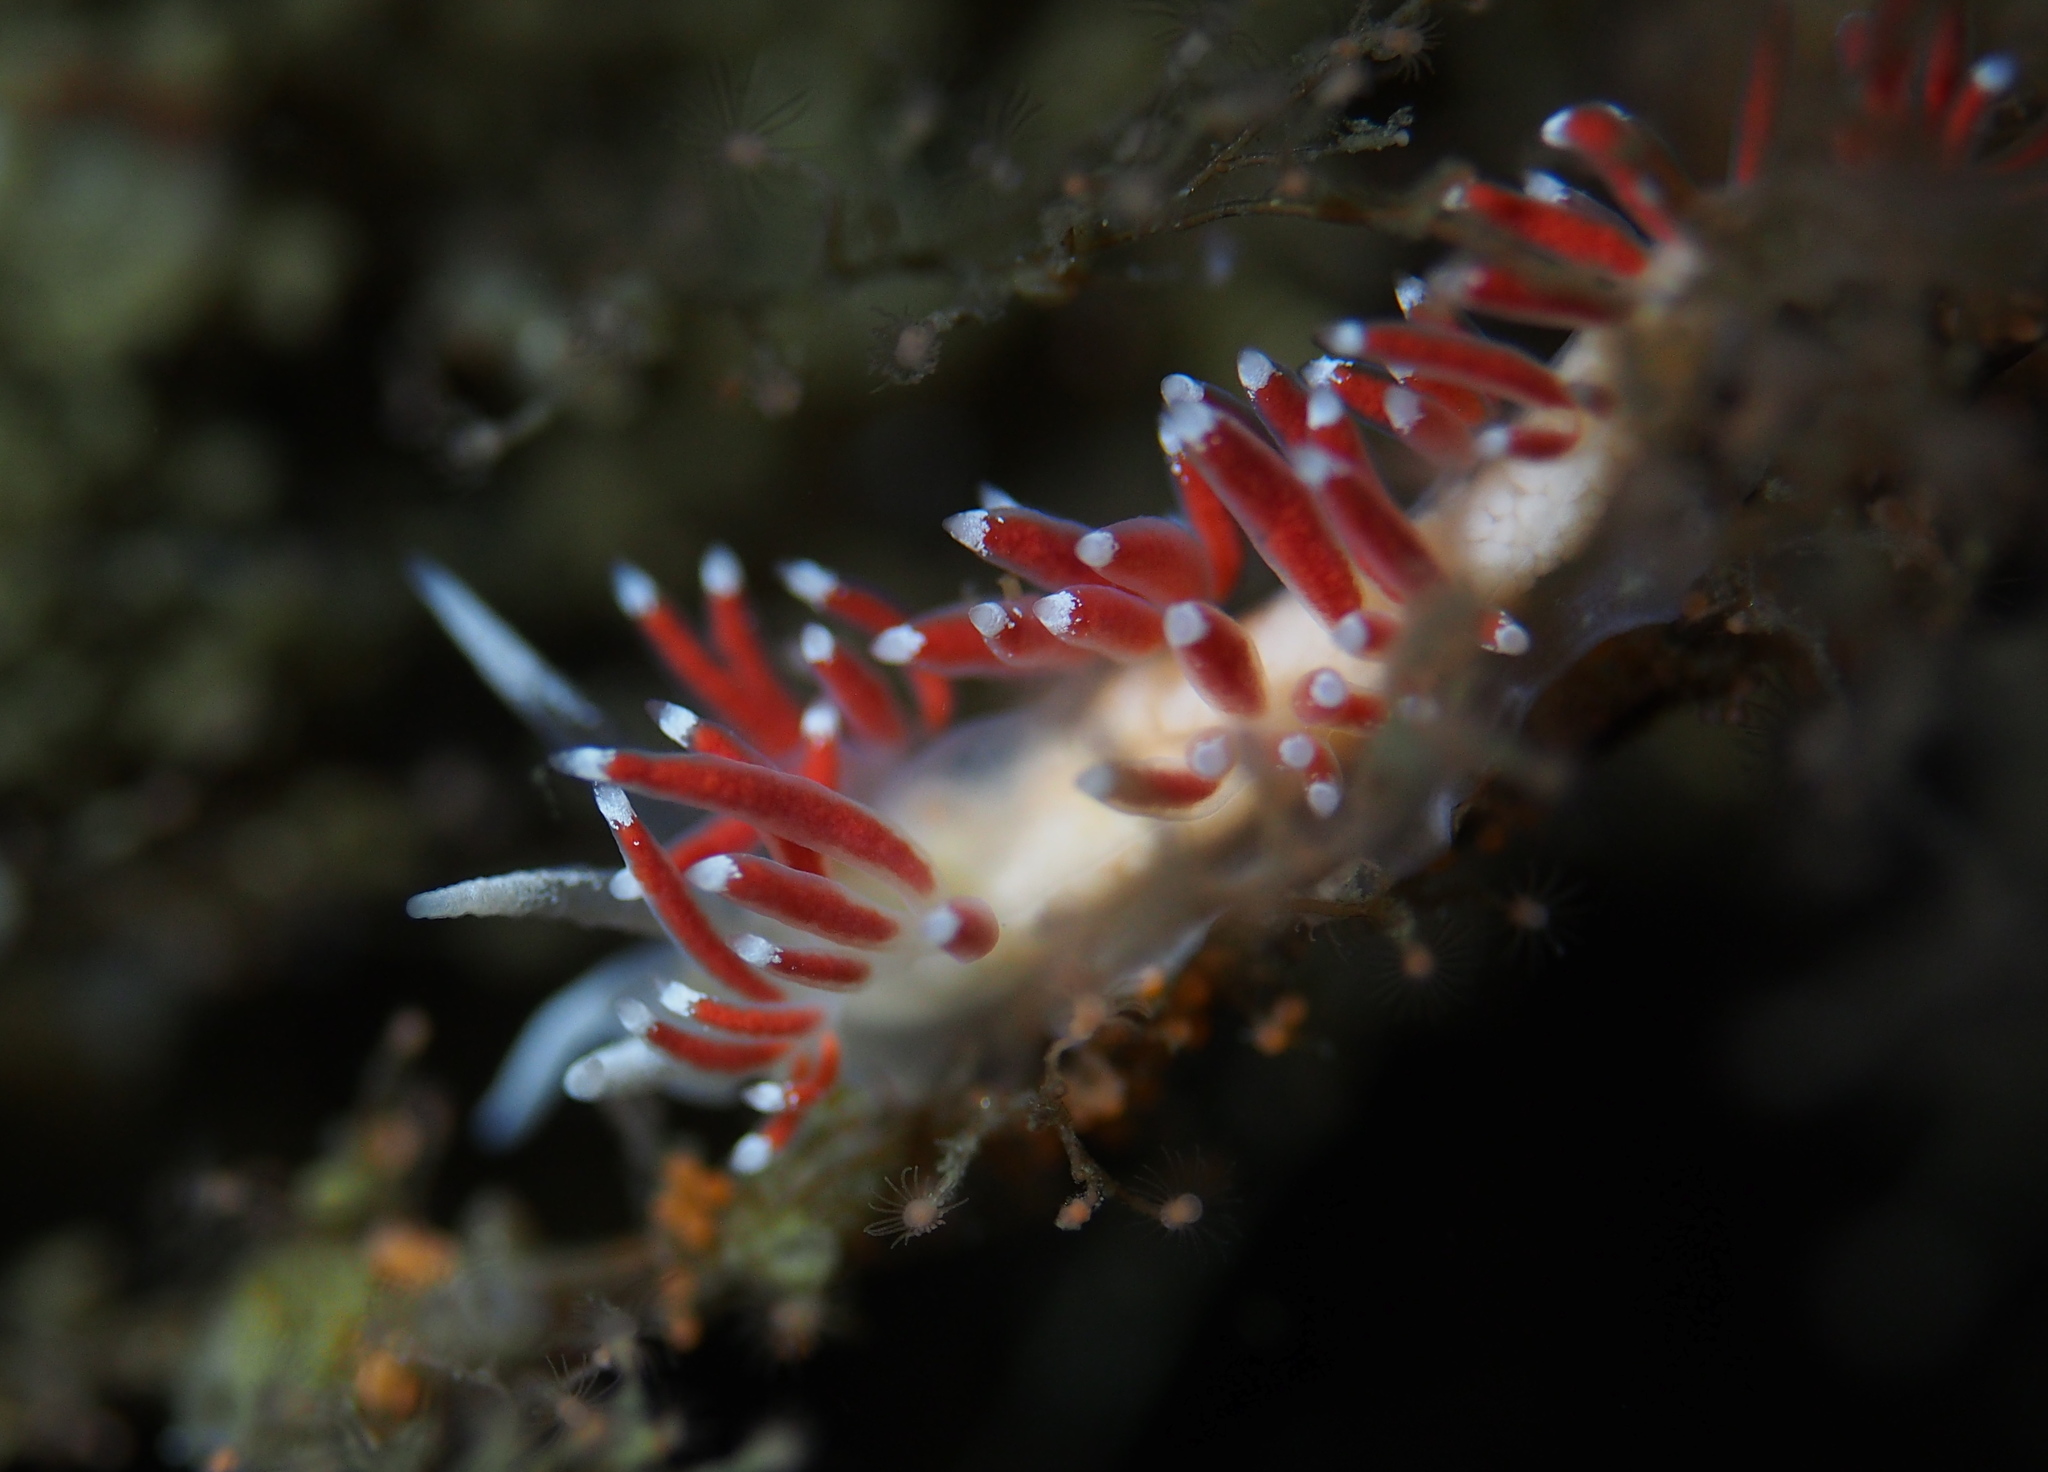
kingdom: Animalia
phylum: Mollusca
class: Gastropoda
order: Nudibranchia
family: Coryphellidae
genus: Coryphella
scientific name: Coryphella gracilis
